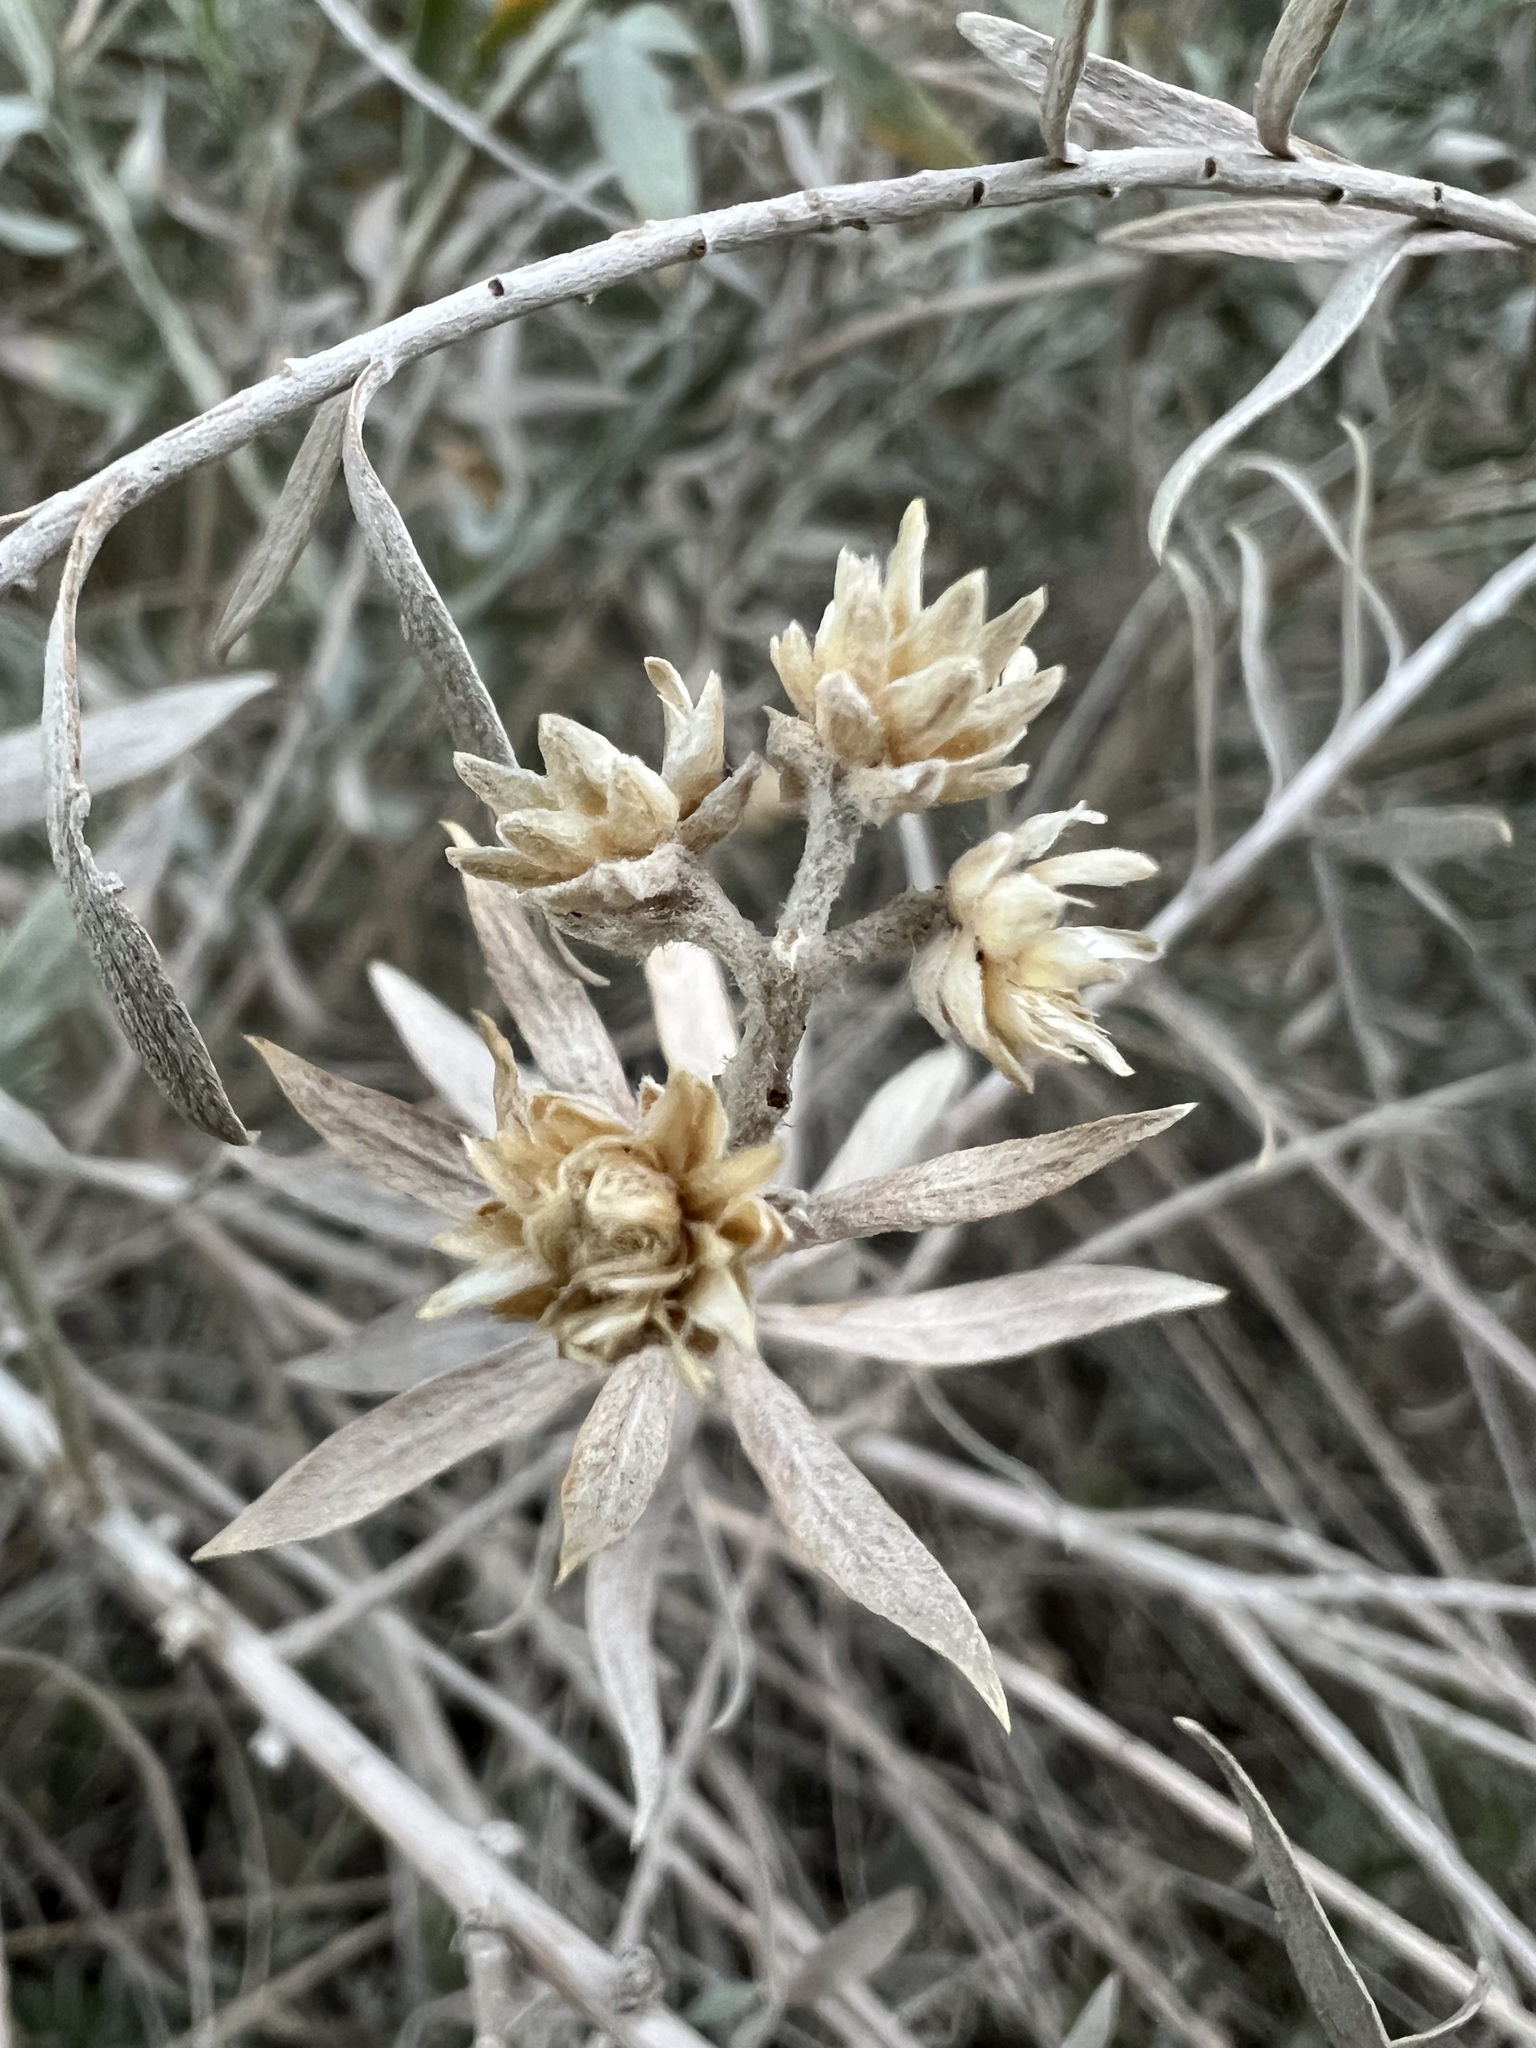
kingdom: Plantae
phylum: Tracheophyta
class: Magnoliopsida
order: Asterales
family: Asteraceae
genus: Pluchea
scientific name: Pluchea sericea
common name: Arrow-weed
